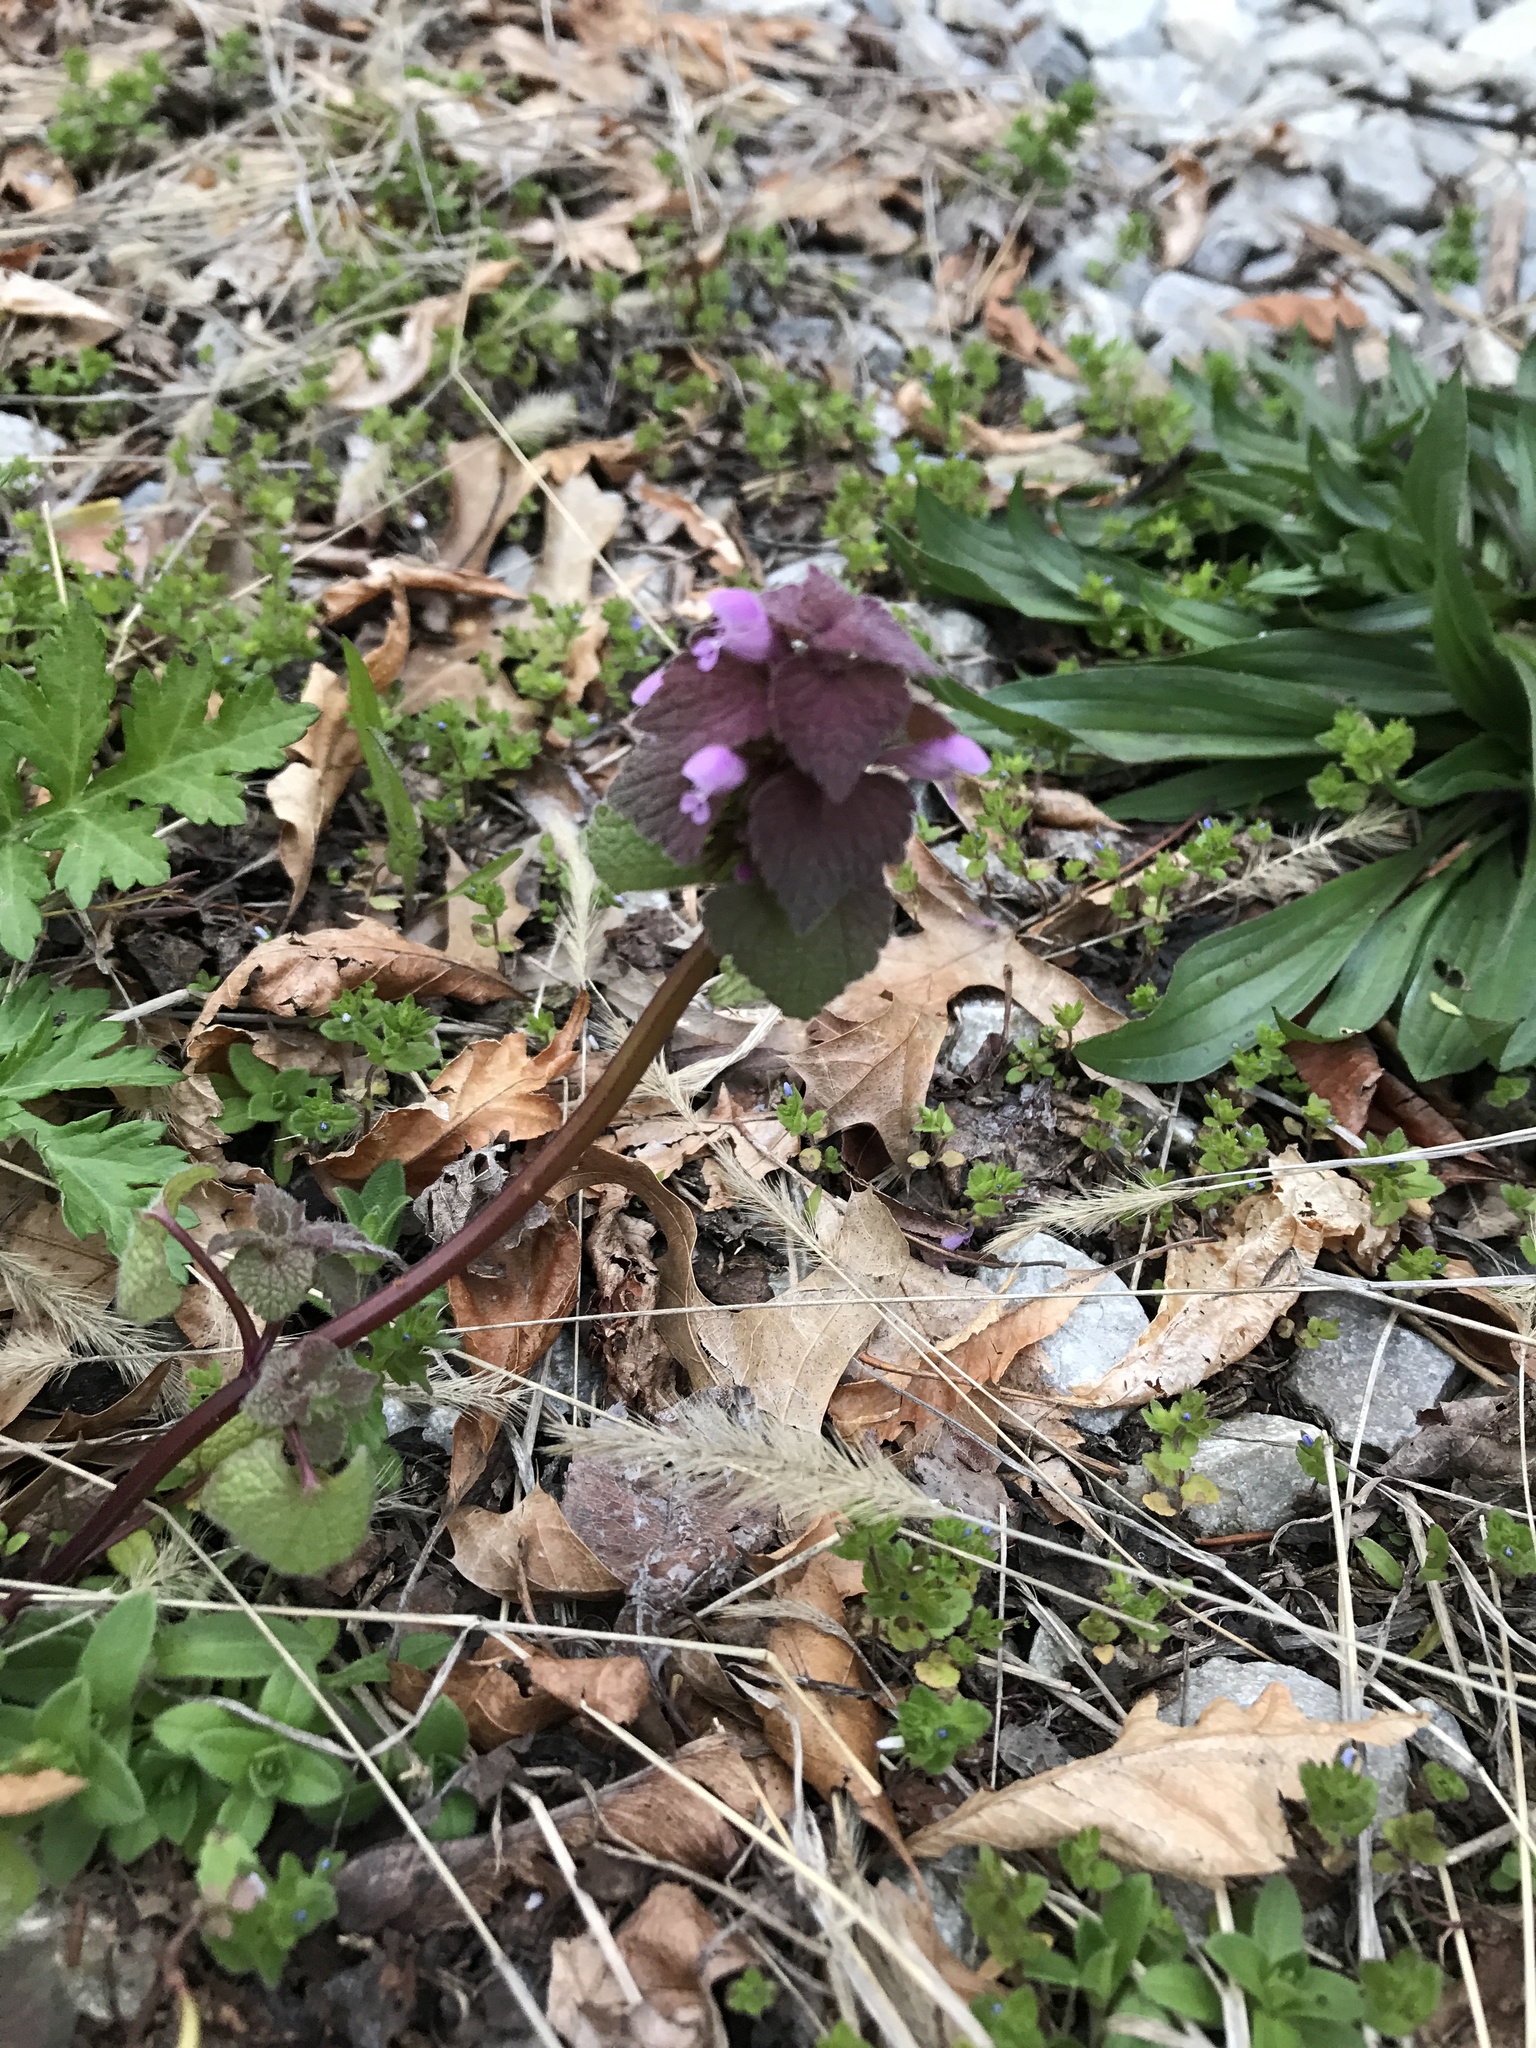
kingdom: Plantae
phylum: Tracheophyta
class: Magnoliopsida
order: Lamiales
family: Lamiaceae
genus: Lamium
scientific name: Lamium purpureum
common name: Red dead-nettle
